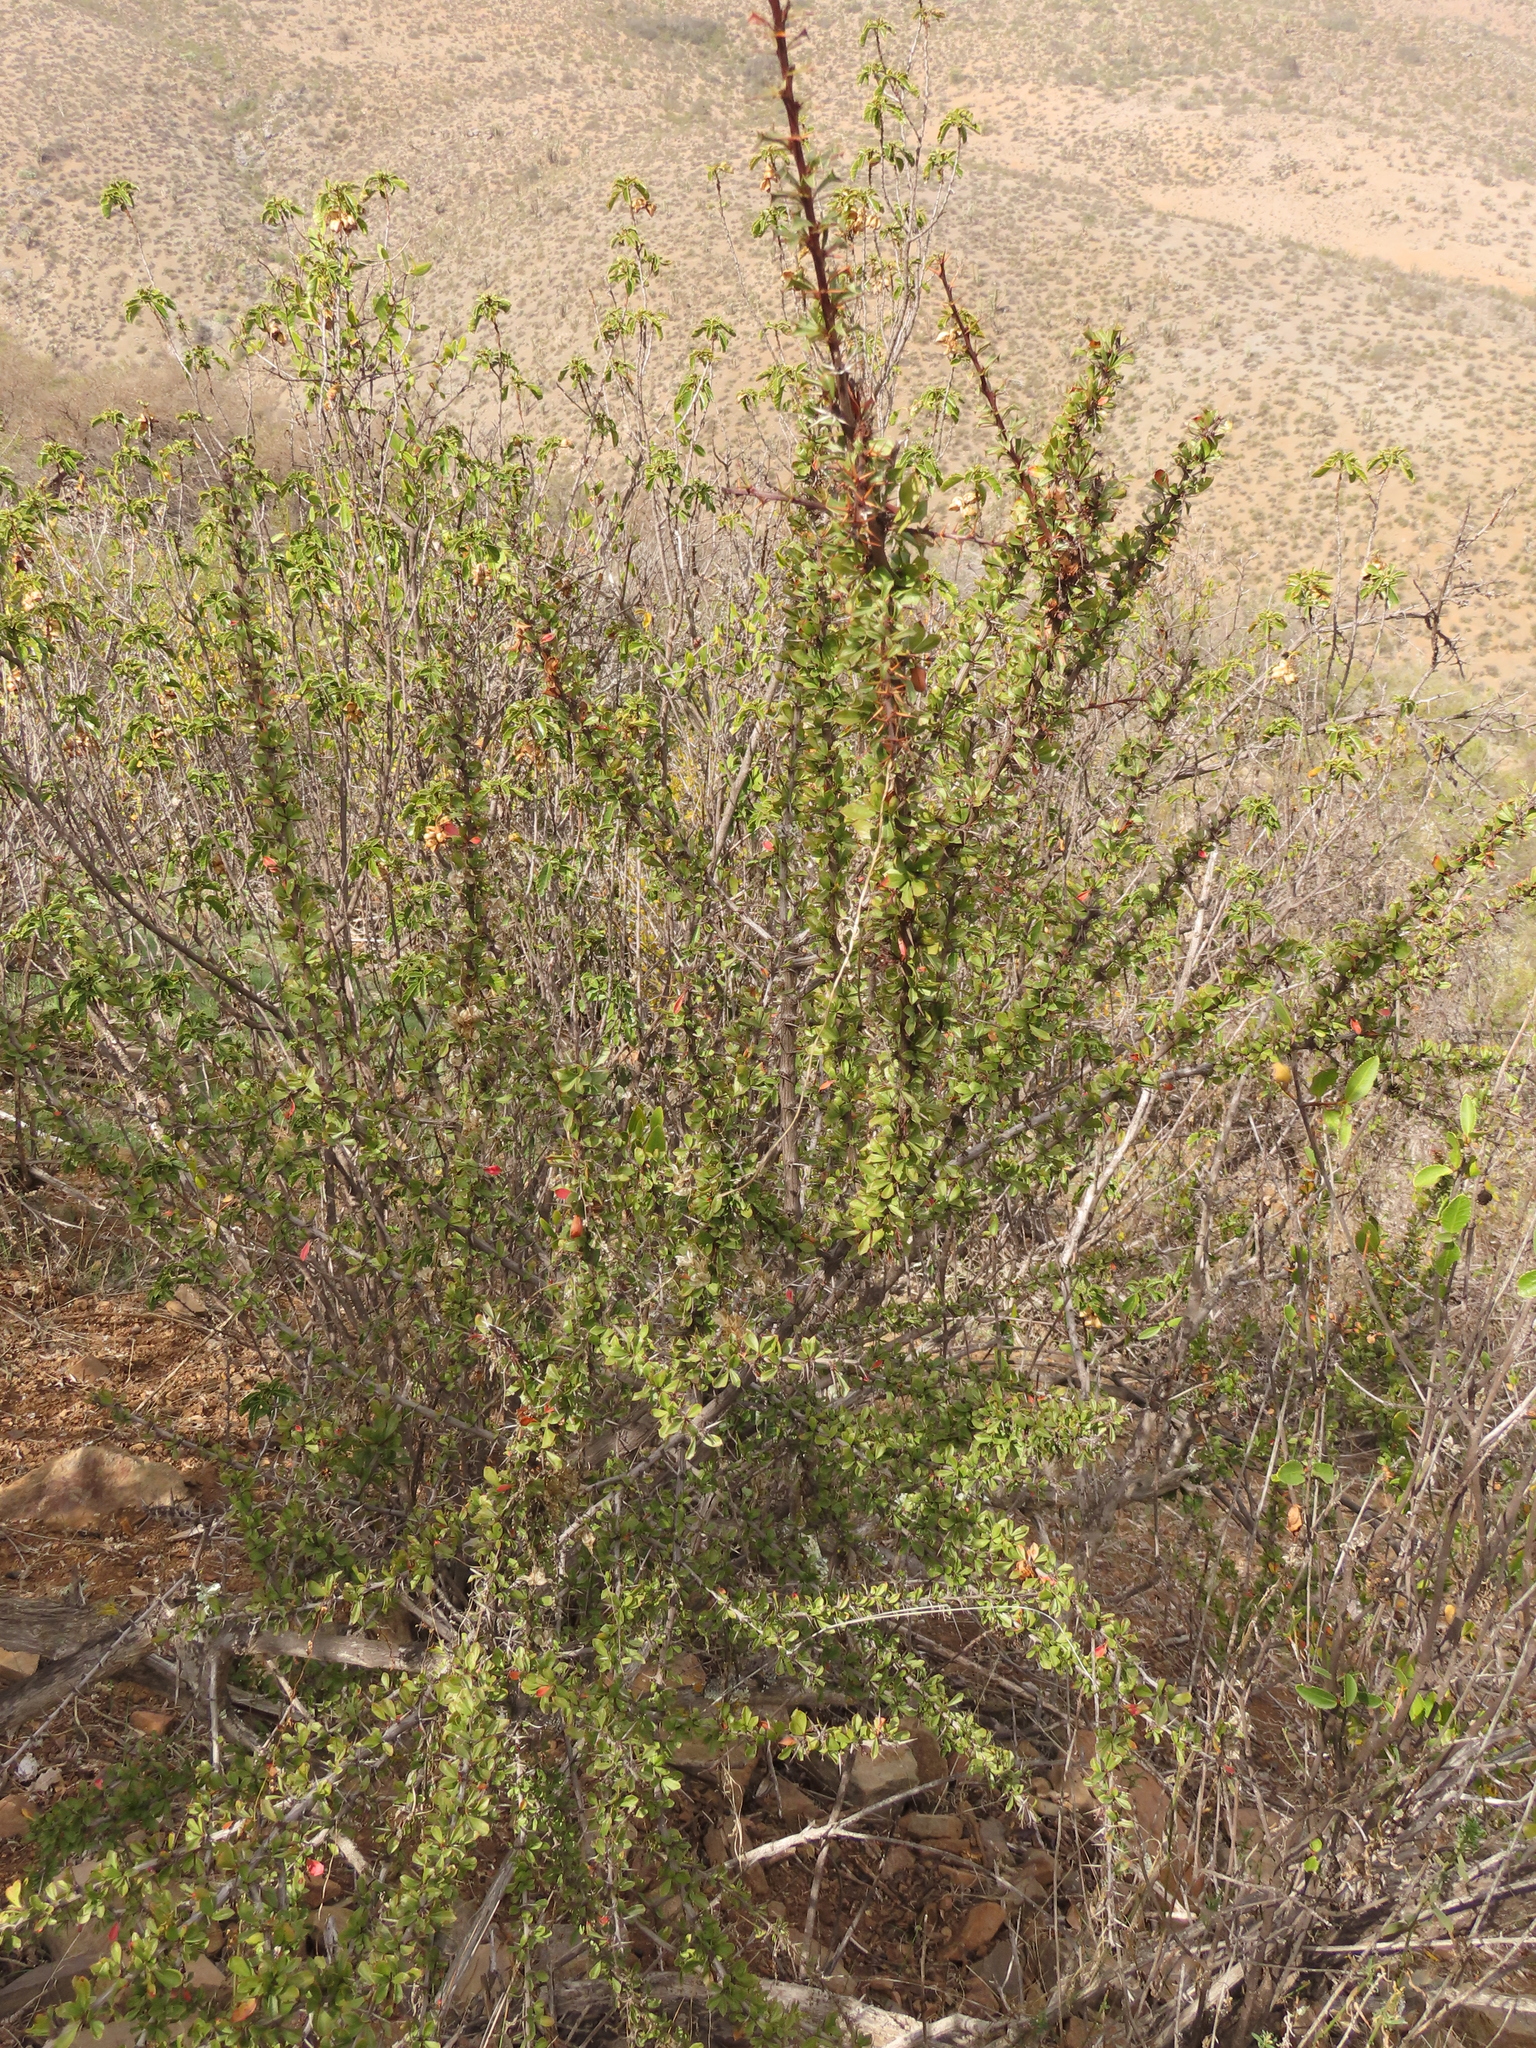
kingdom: Plantae
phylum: Tracheophyta
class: Magnoliopsida
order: Ranunculales
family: Berberidaceae
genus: Berberis
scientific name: Berberis glomerata
